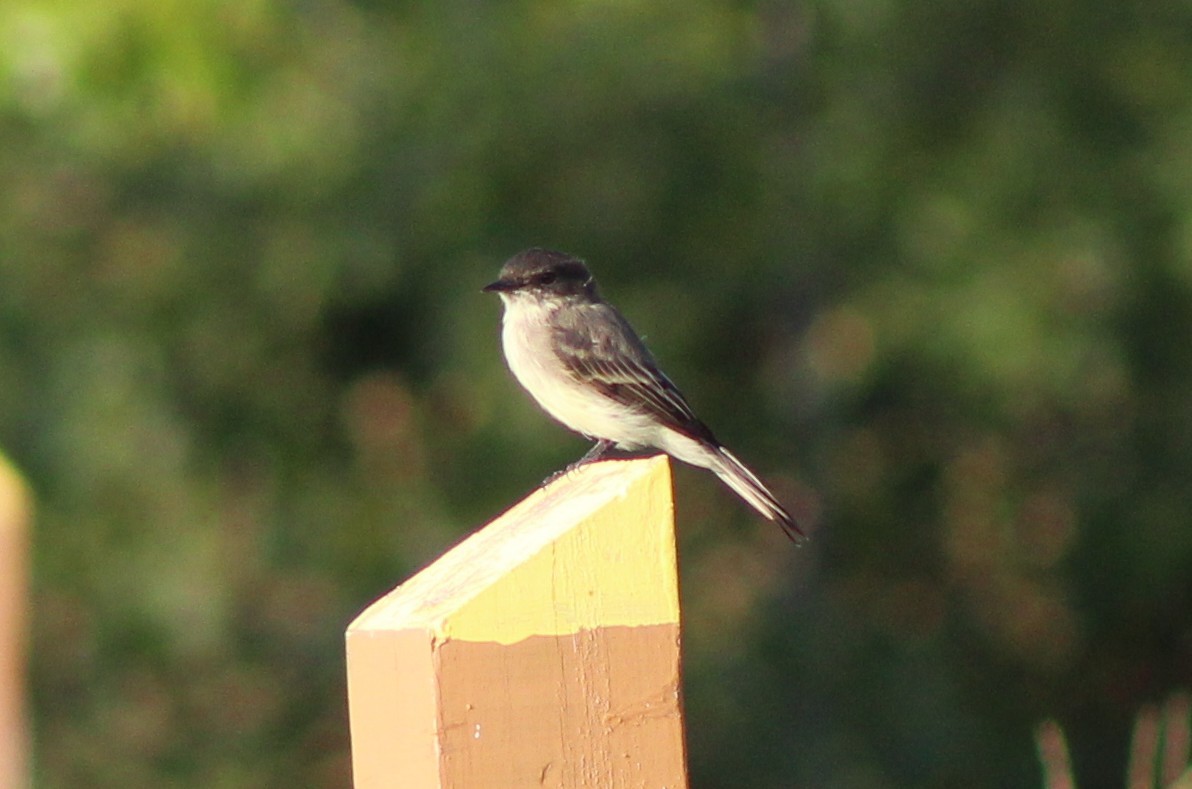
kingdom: Animalia
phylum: Chordata
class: Aves
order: Passeriformes
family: Tyrannidae
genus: Sayornis
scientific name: Sayornis phoebe
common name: Eastern phoebe
